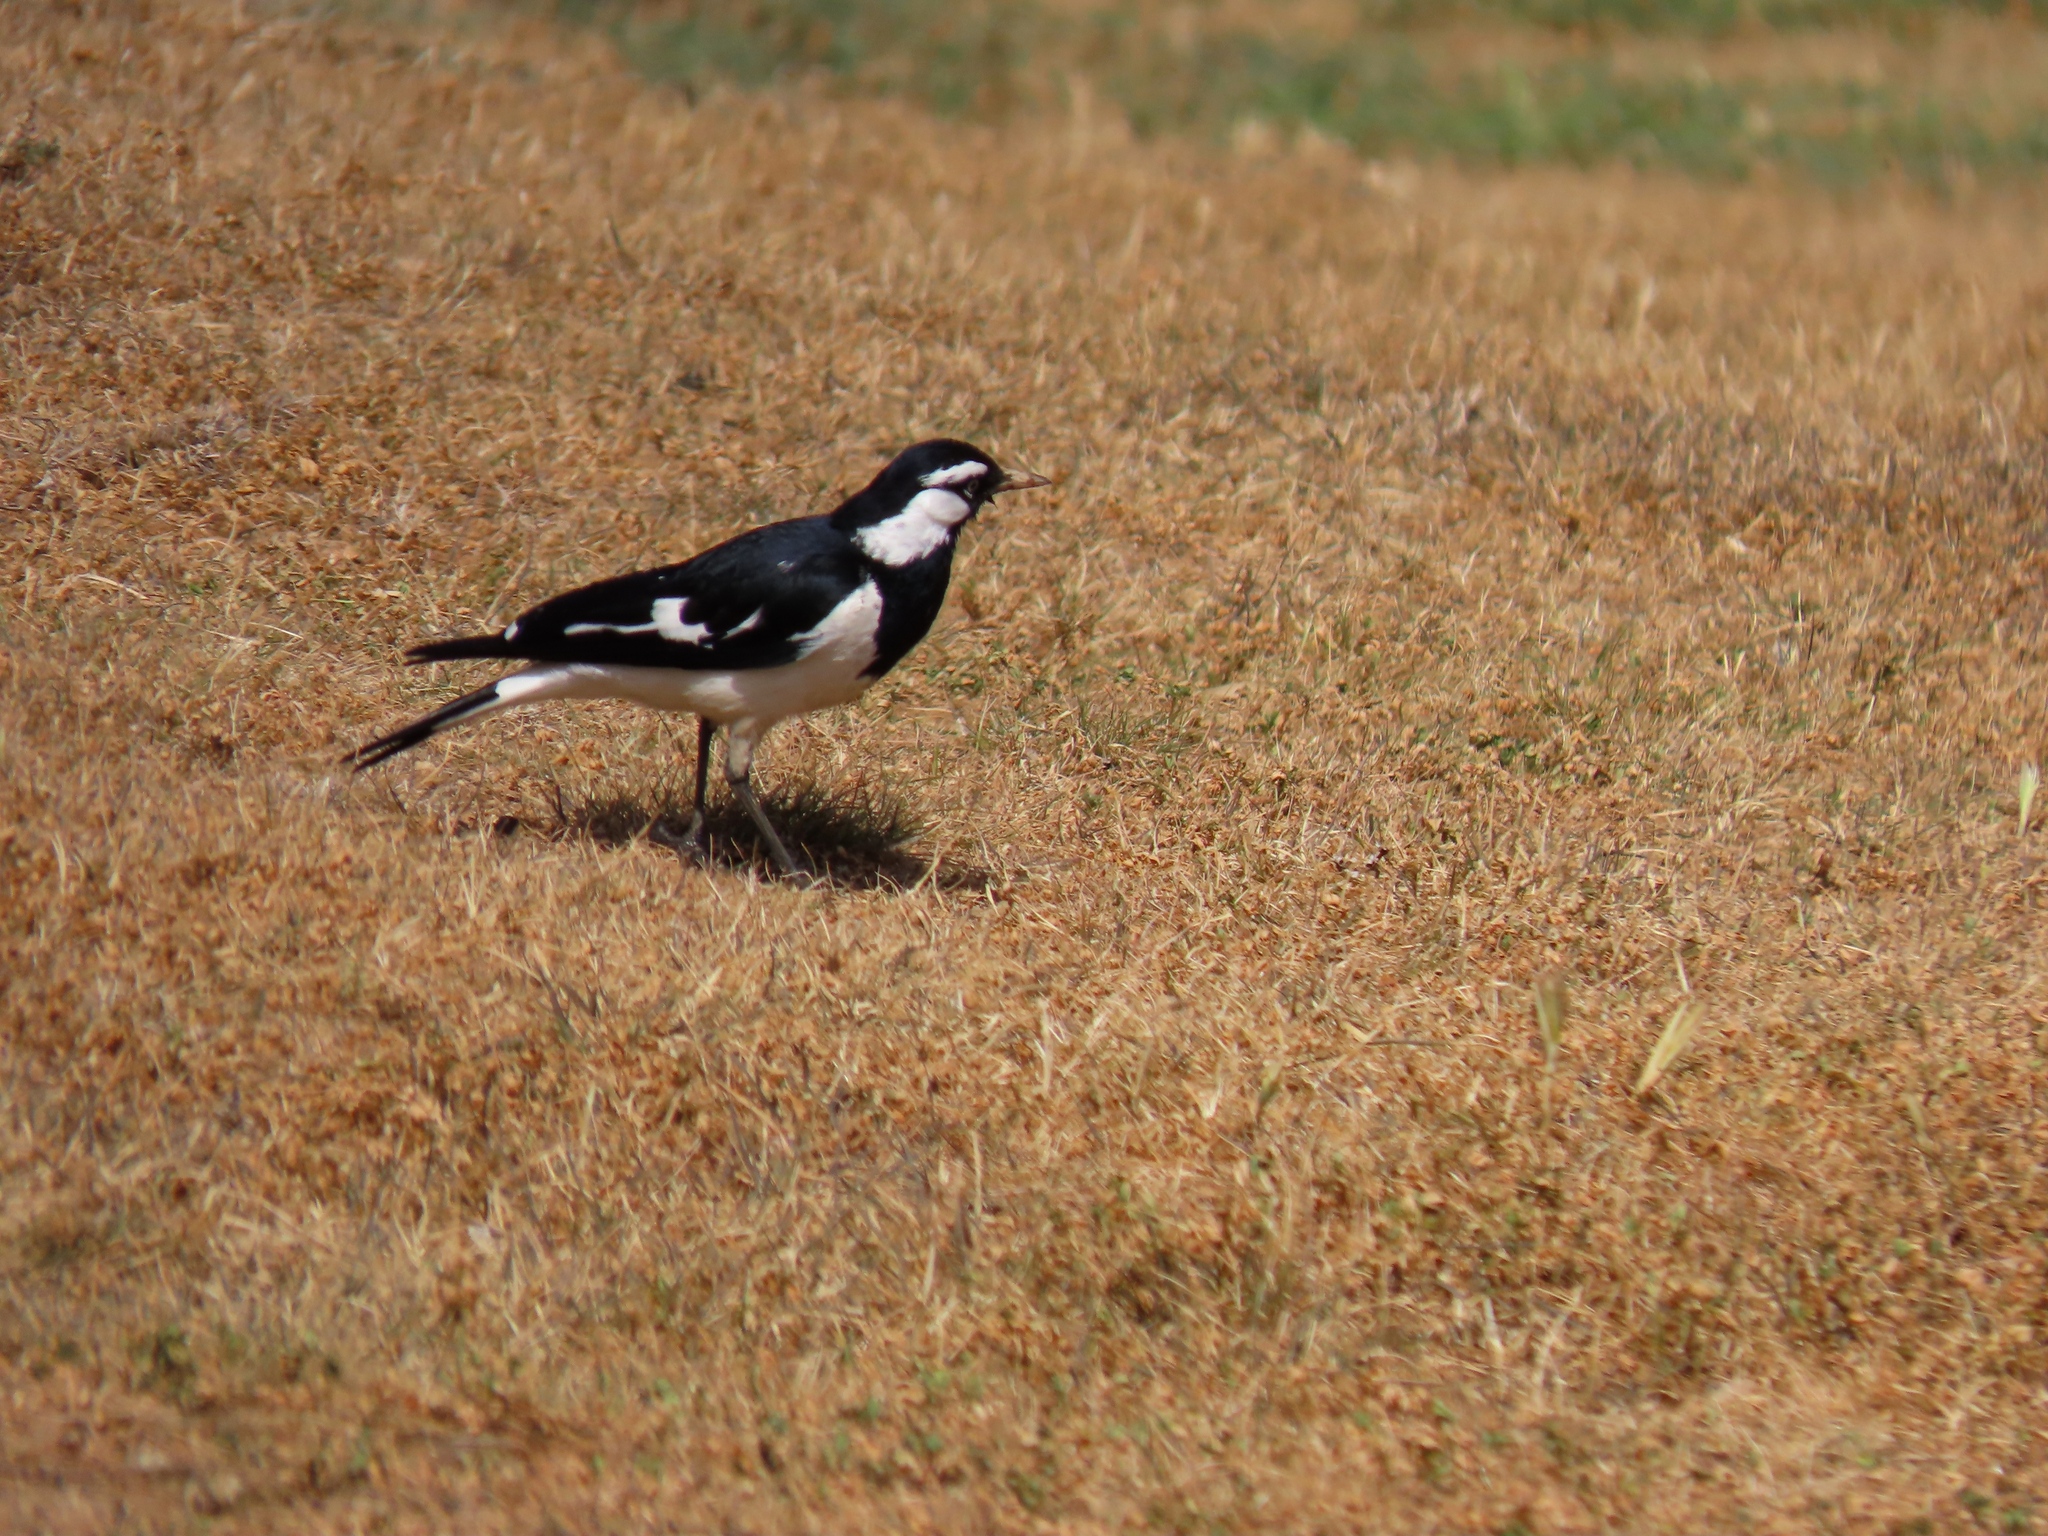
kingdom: Animalia
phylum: Chordata
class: Aves
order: Passeriformes
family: Monarchidae
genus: Grallina
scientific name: Grallina cyanoleuca
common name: Magpie-lark
